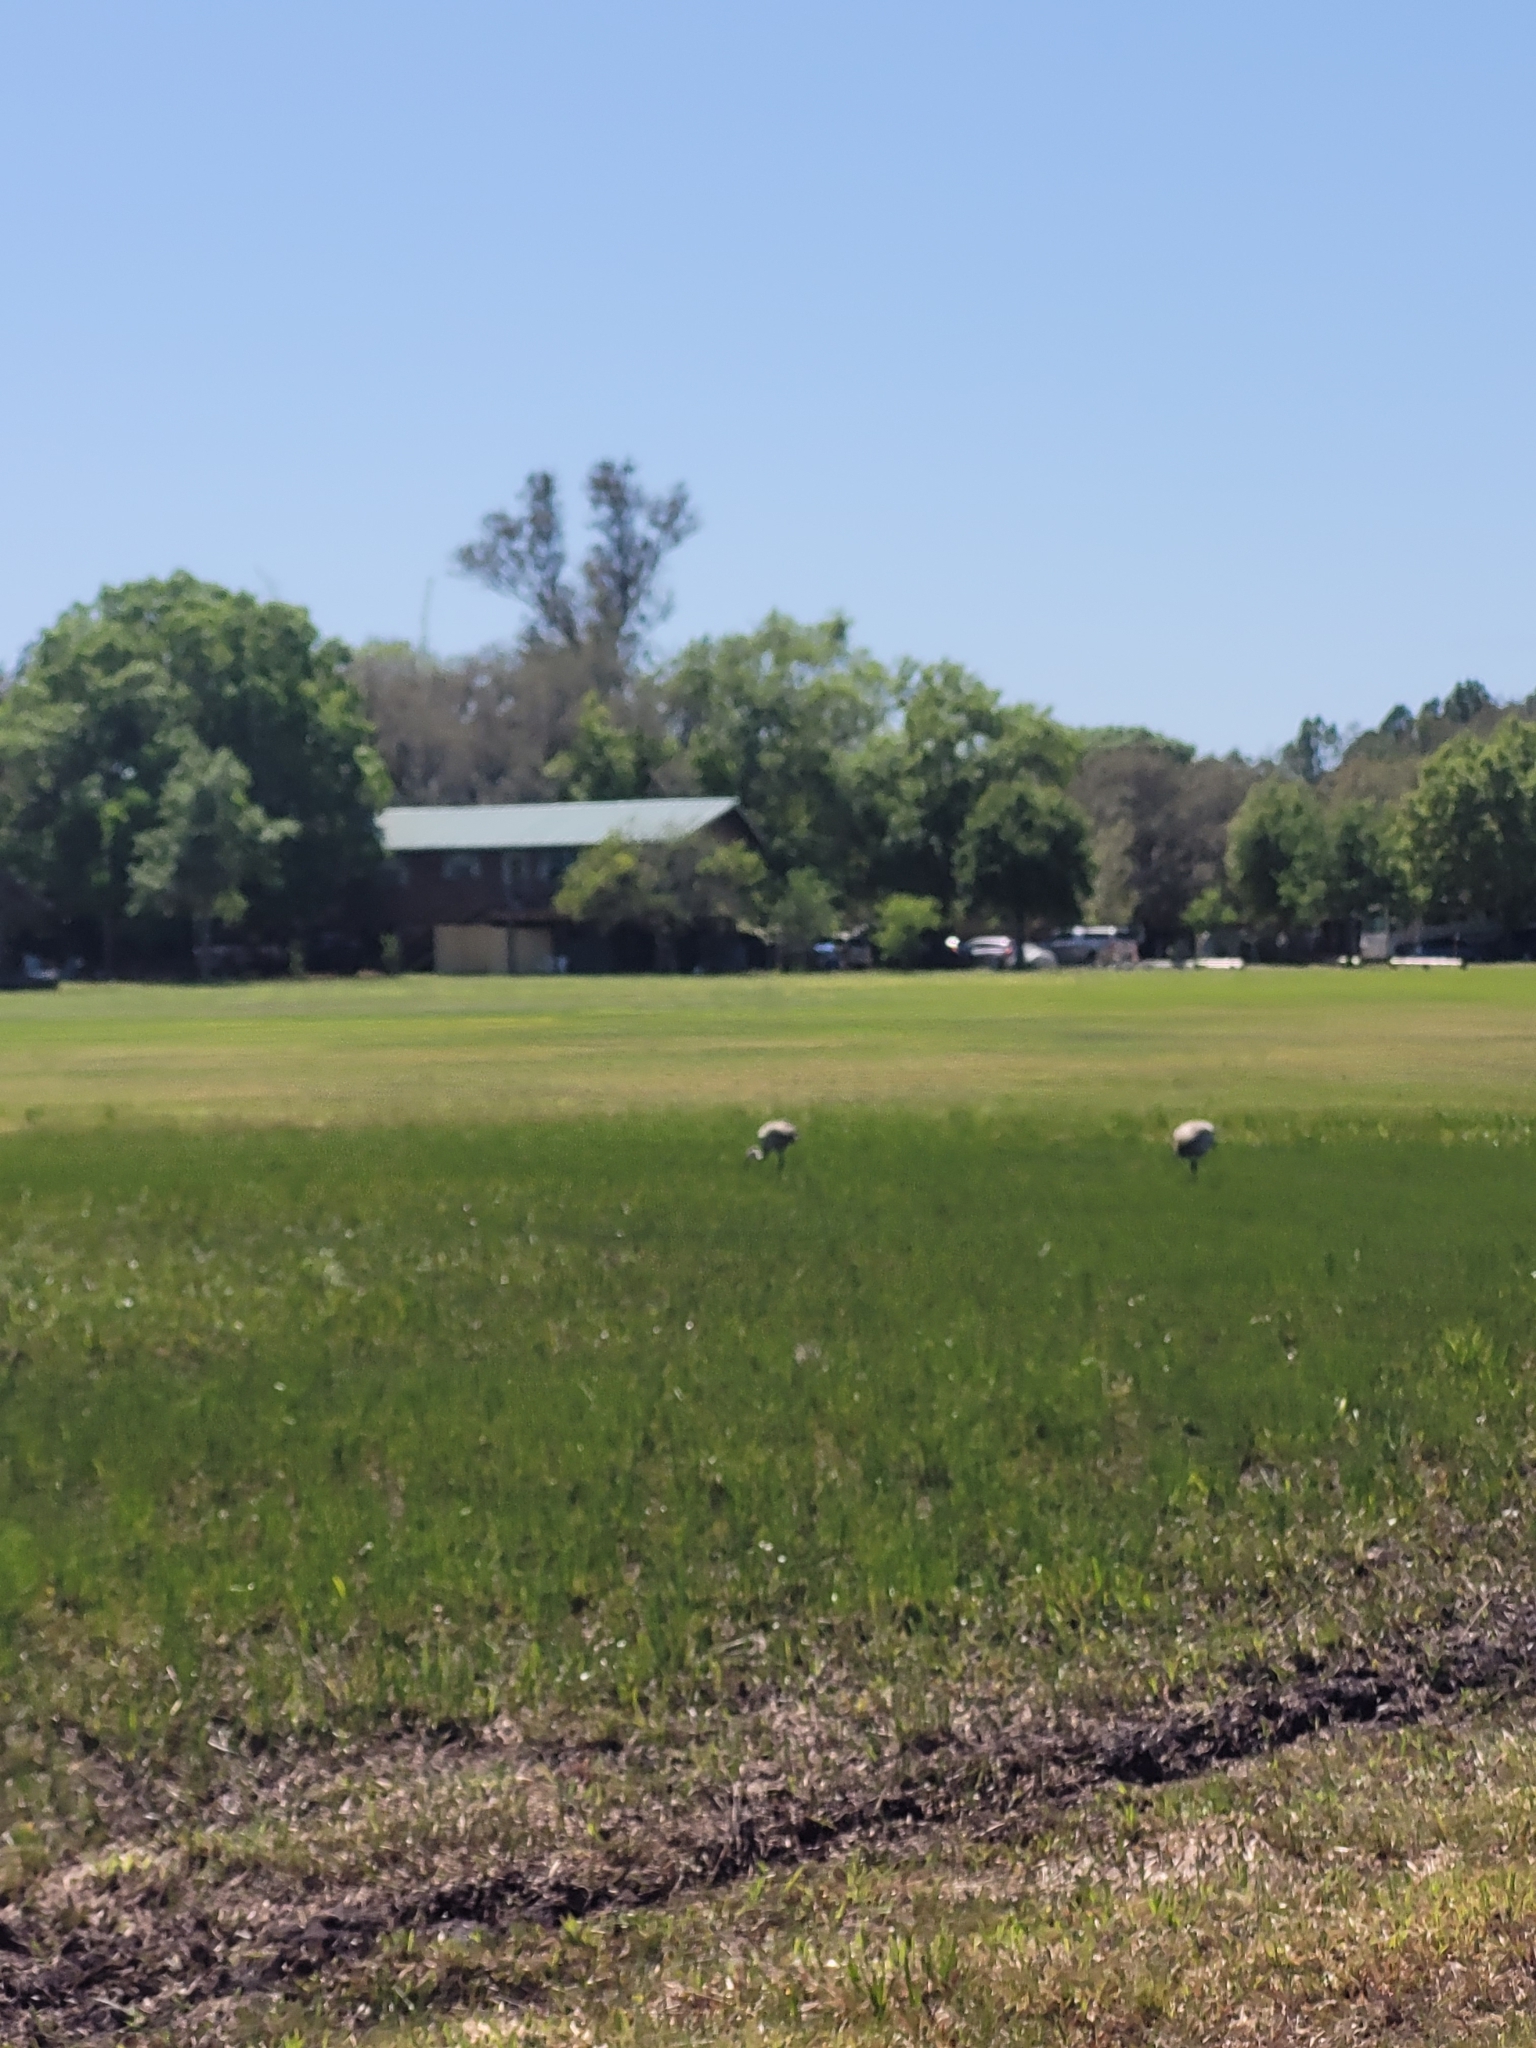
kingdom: Animalia
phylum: Chordata
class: Aves
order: Gruiformes
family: Gruidae
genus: Grus
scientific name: Grus canadensis
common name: Sandhill crane
